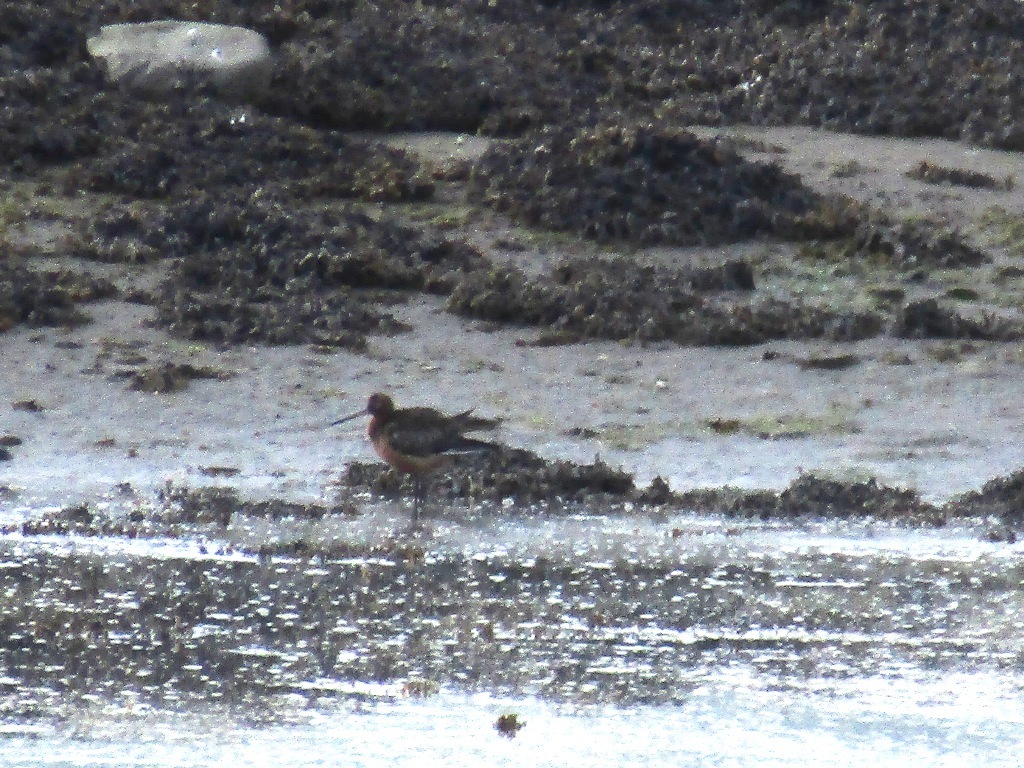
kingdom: Animalia
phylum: Chordata
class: Aves
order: Charadriiformes
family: Scolopacidae
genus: Limosa
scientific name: Limosa lapponica
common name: Bar-tailed godwit
